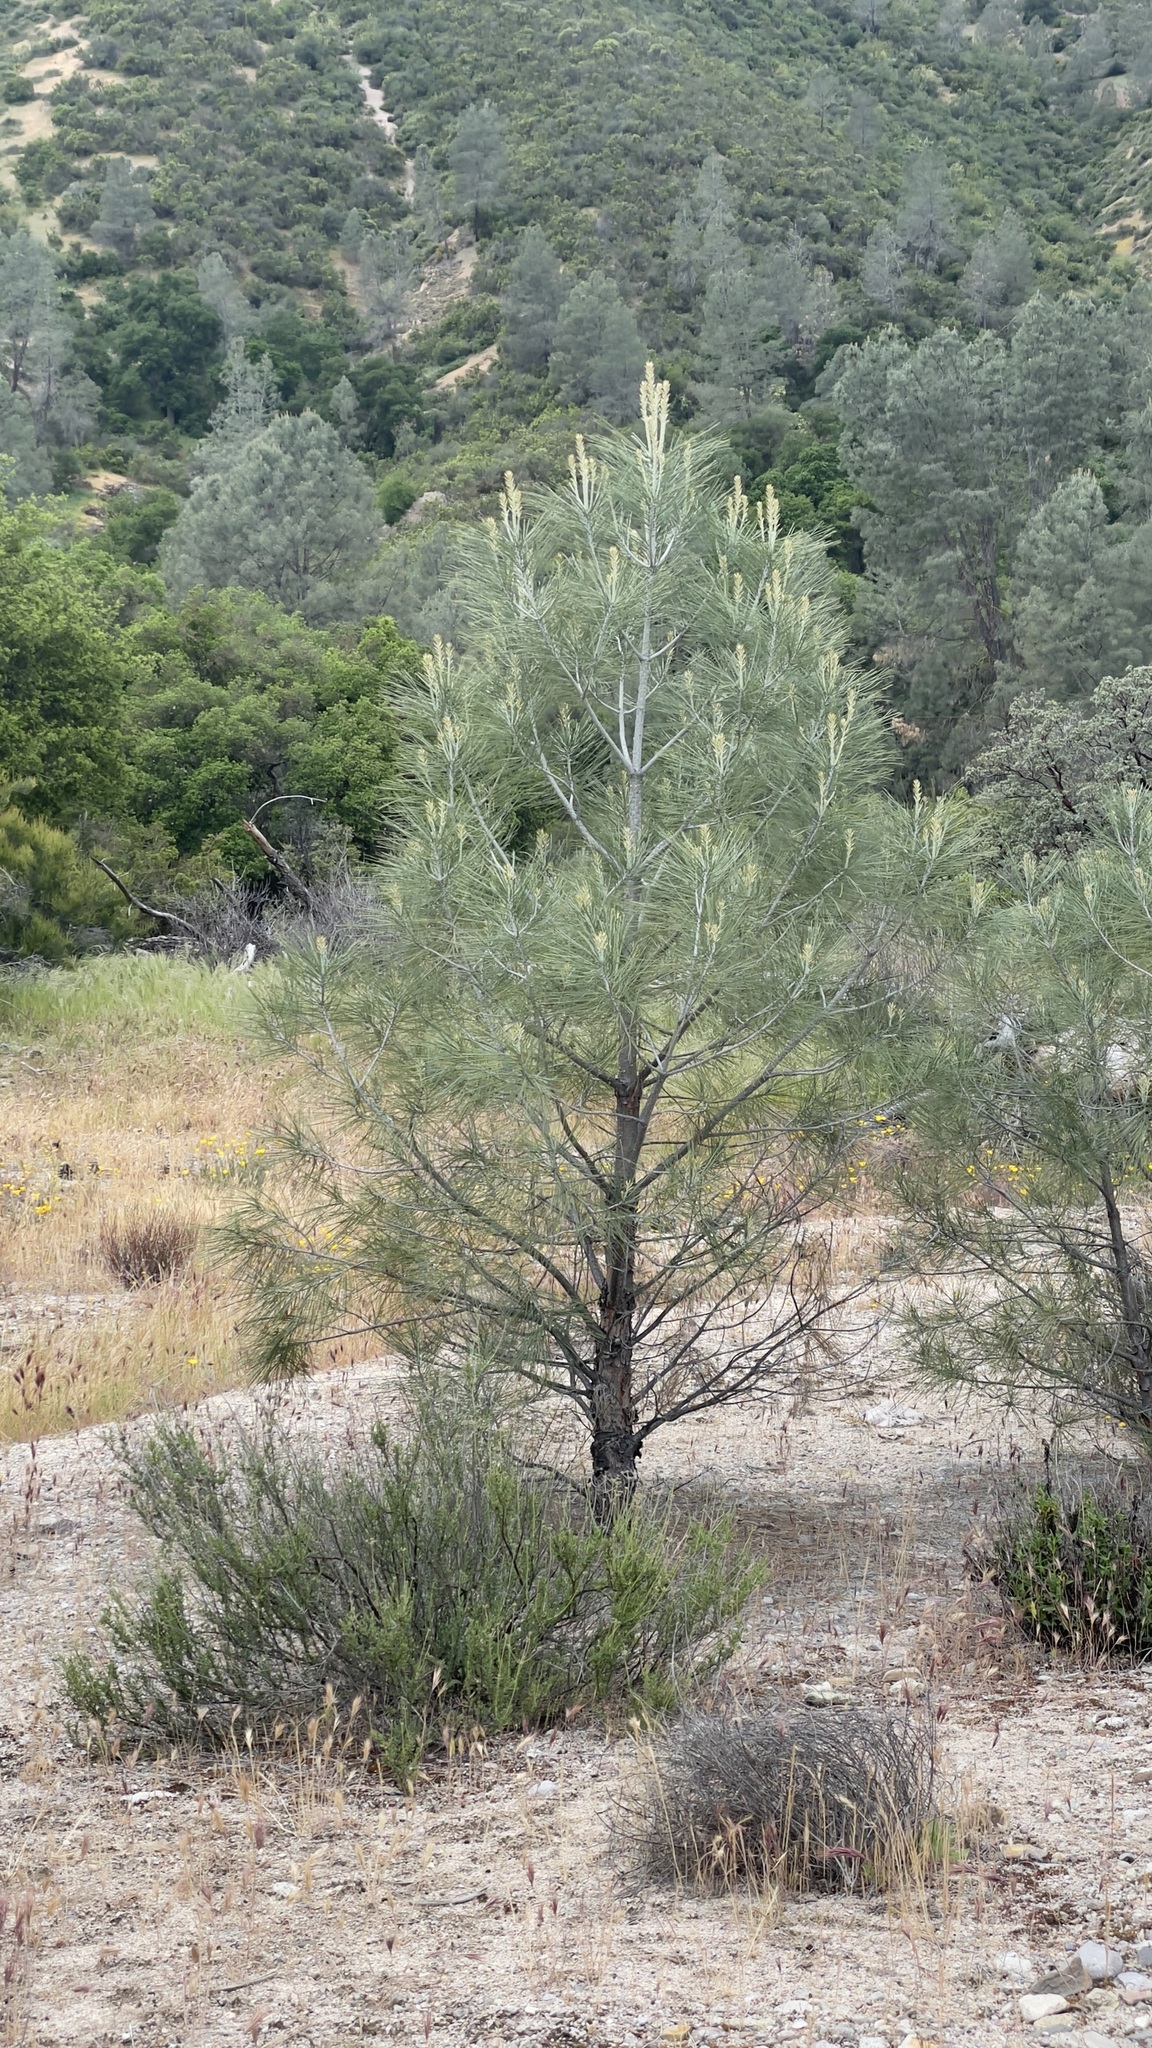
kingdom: Plantae
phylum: Tracheophyta
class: Pinopsida
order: Pinales
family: Pinaceae
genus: Pinus
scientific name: Pinus sabiniana
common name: Bull pine
